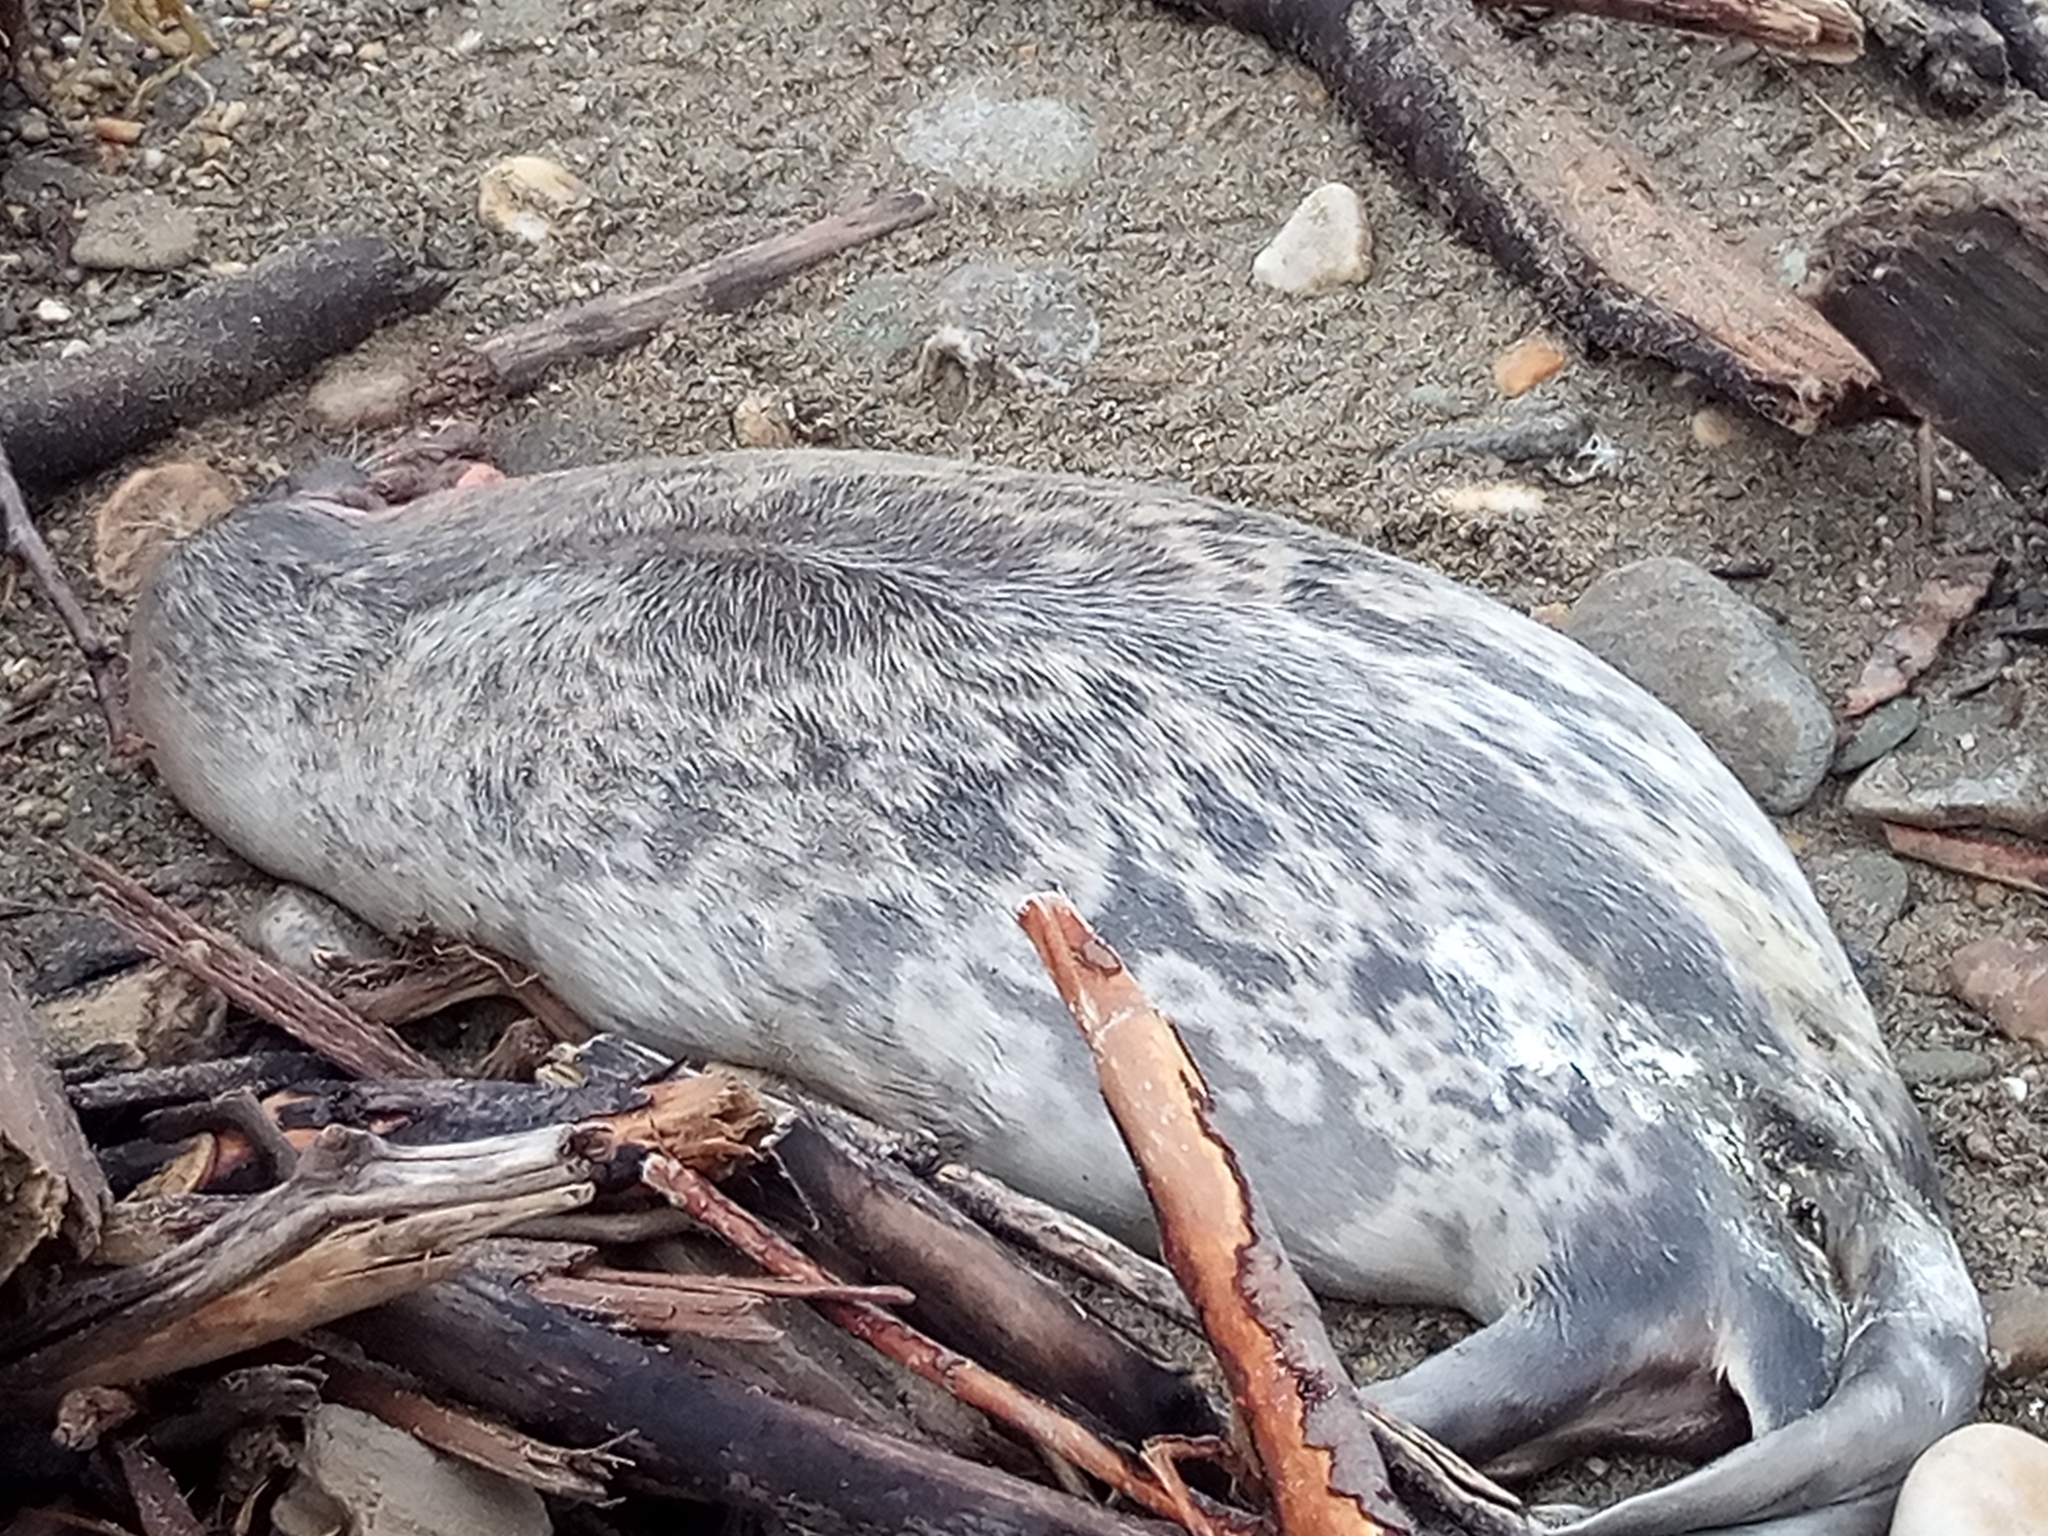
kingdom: Animalia
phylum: Chordata
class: Mammalia
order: Carnivora
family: Phocidae
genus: Pusa
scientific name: Pusa hispida
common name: Ringed seal
